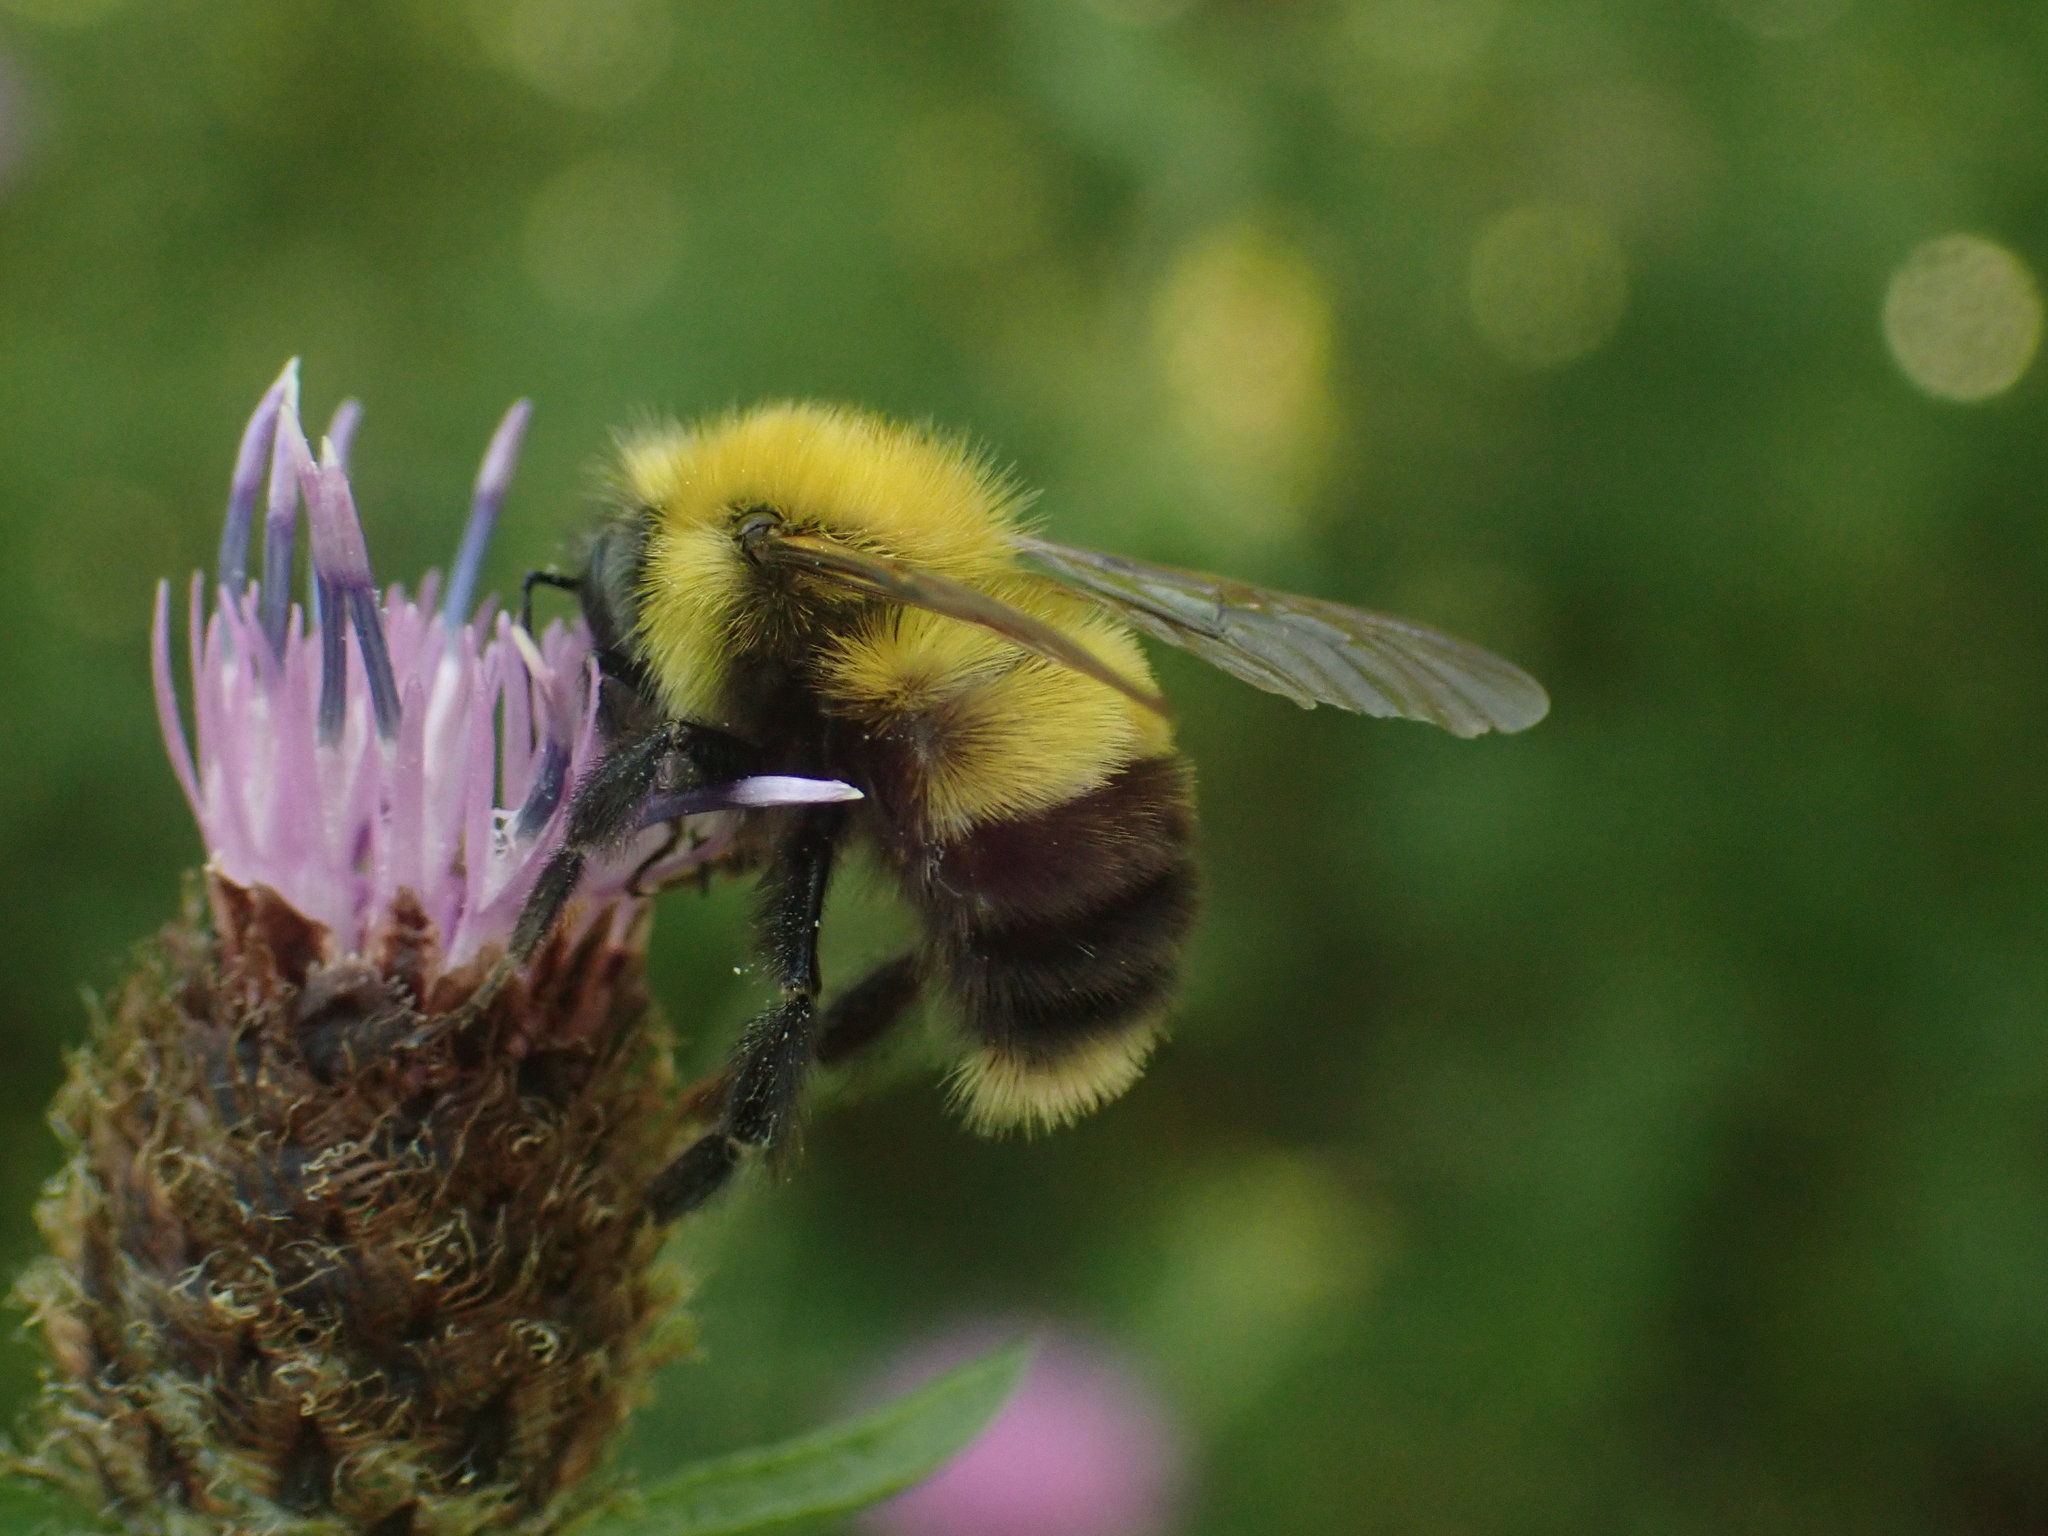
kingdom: Animalia
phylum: Arthropoda
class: Insecta
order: Hymenoptera
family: Apidae
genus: Bombus
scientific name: Bombus perplexus
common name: Confusing bumble bee
